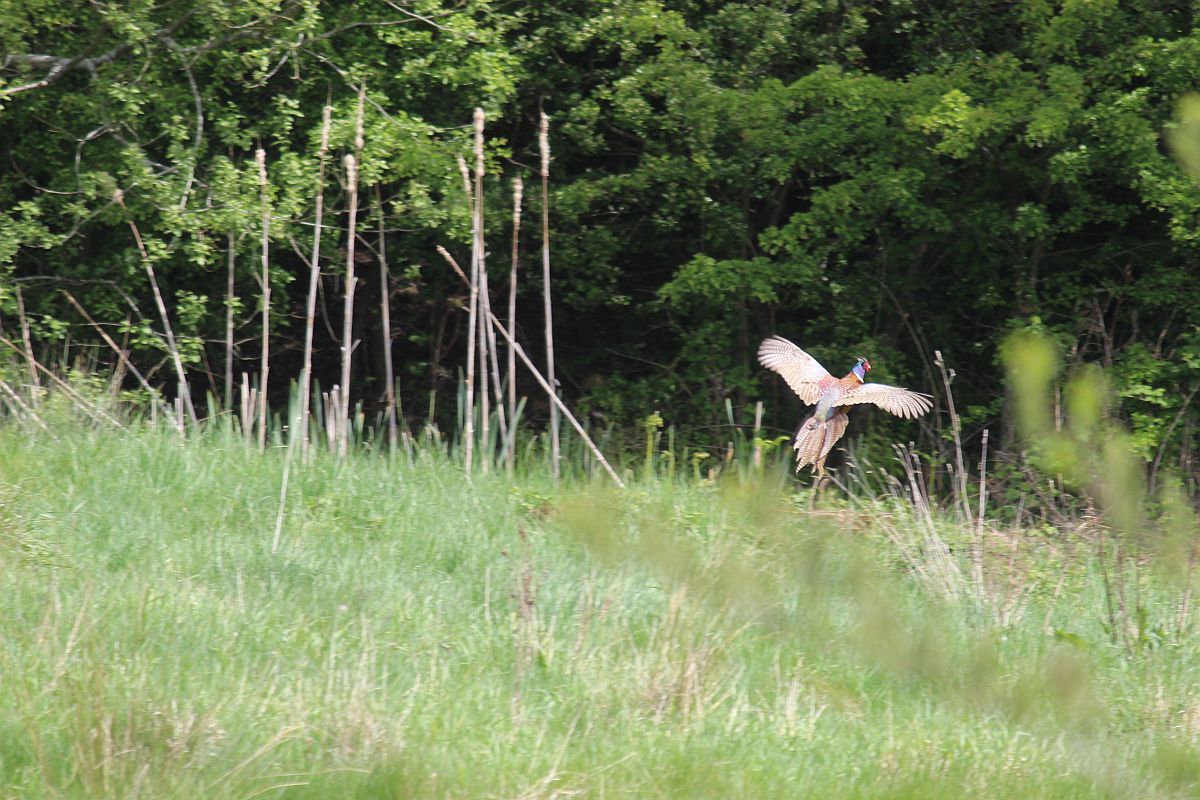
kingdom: Animalia
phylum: Chordata
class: Aves
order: Galliformes
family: Phasianidae
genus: Phasianus
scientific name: Phasianus colchicus
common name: Common pheasant
